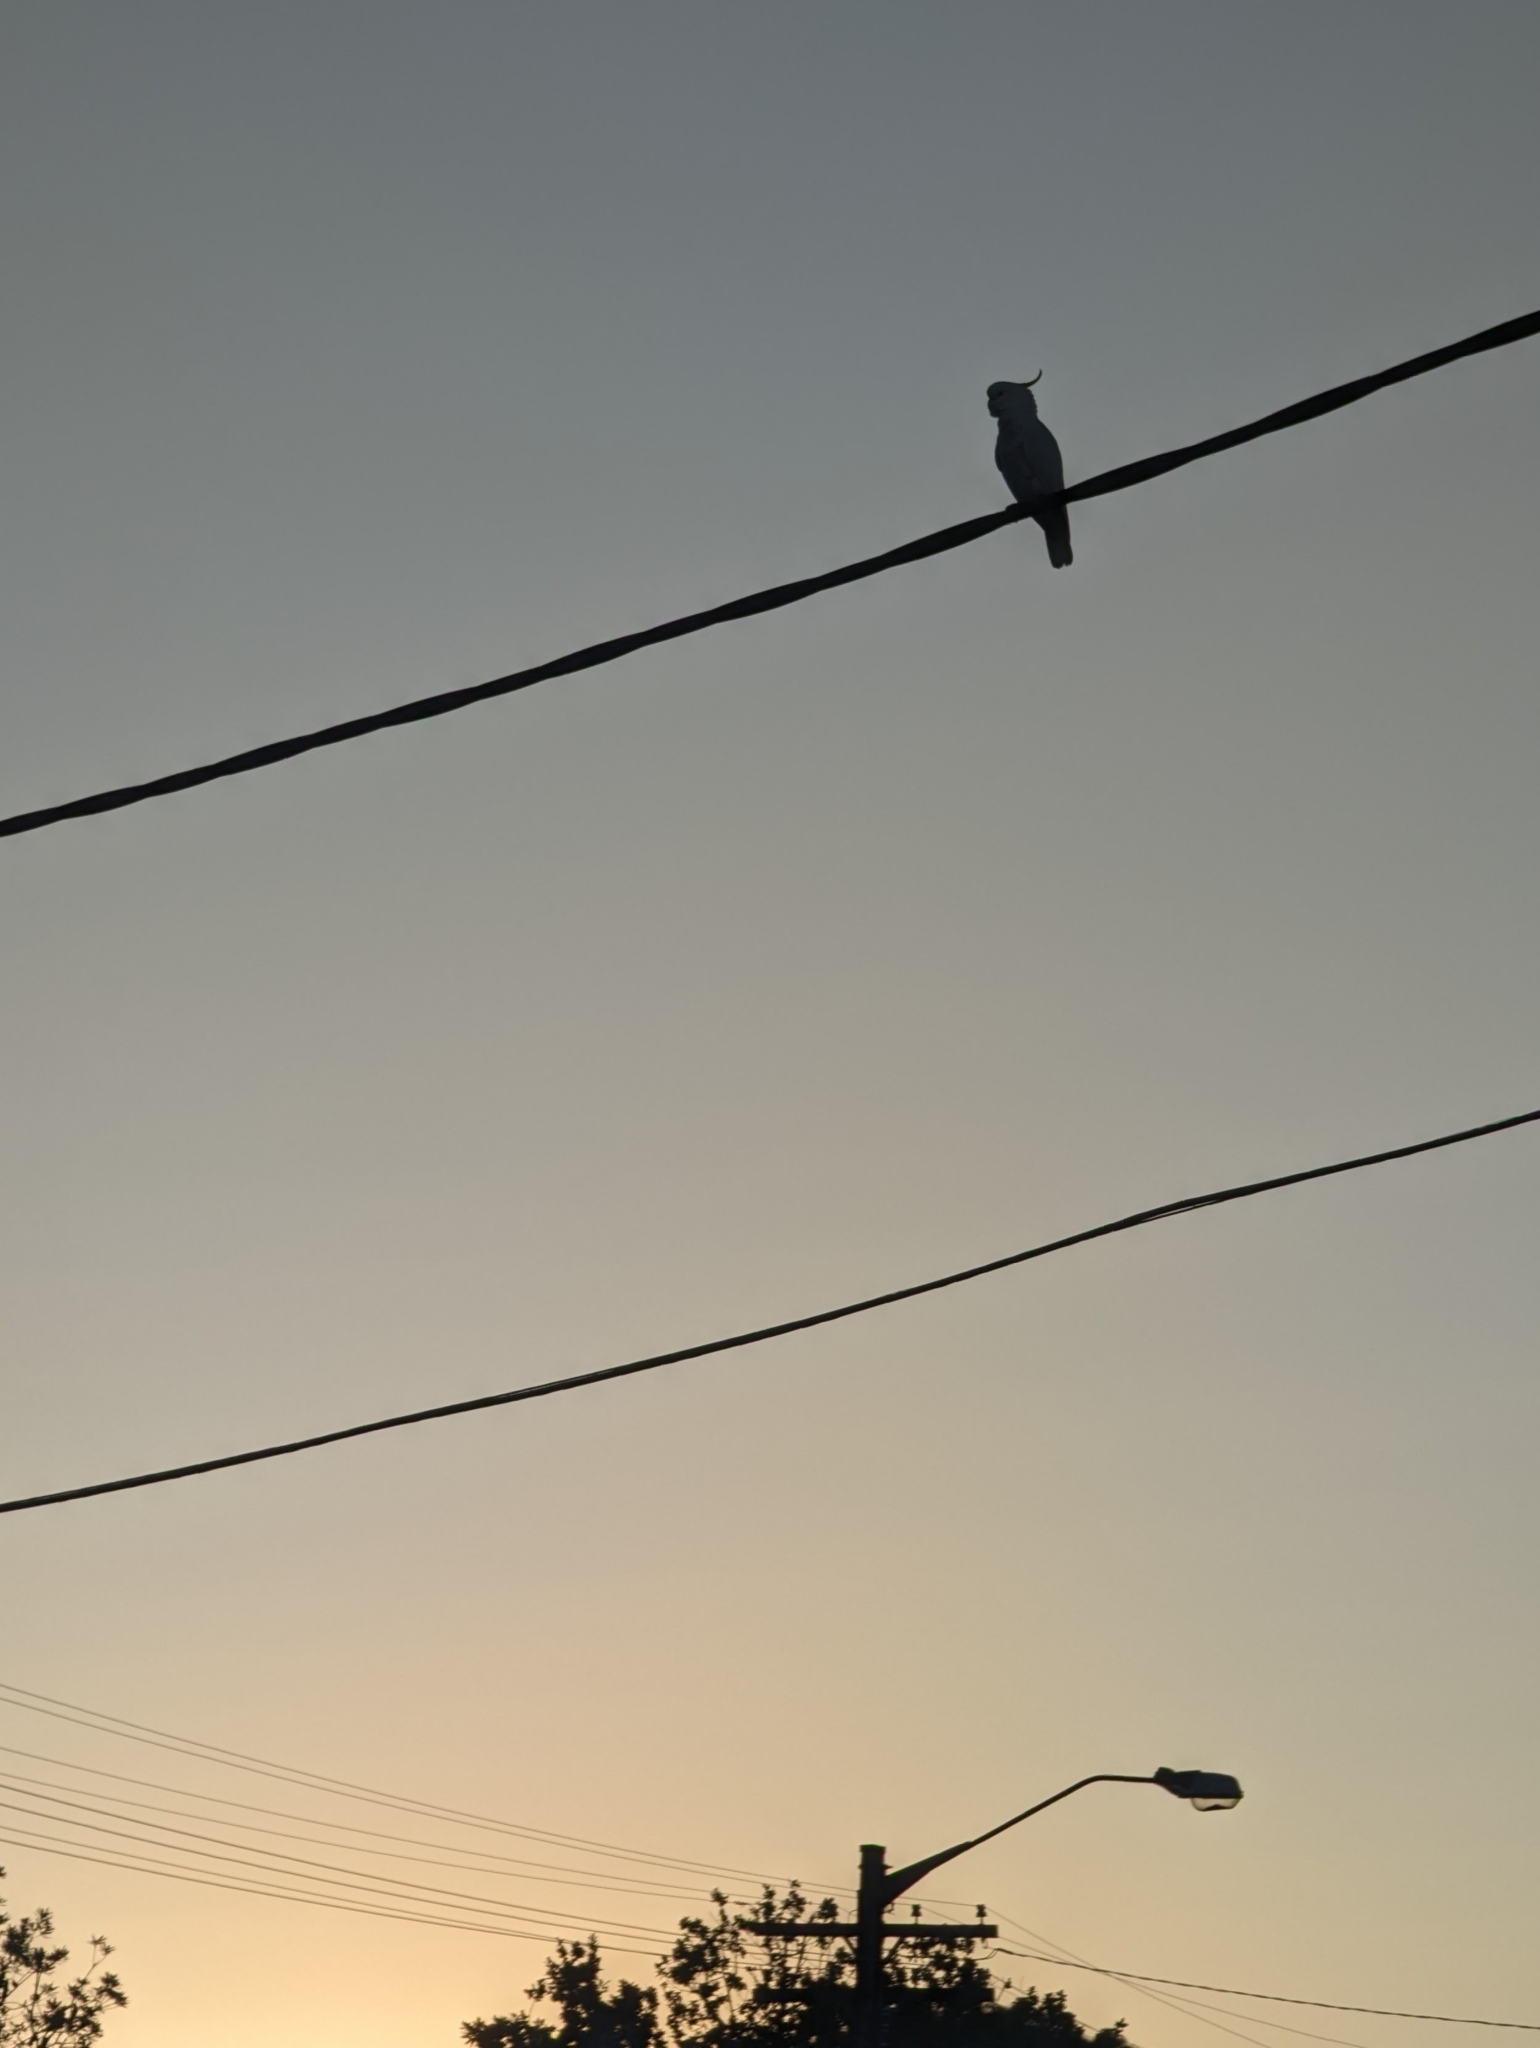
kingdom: Animalia
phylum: Chordata
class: Aves
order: Psittaciformes
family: Psittacidae
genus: Cacatua
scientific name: Cacatua galerita
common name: Sulphur-crested cockatoo
